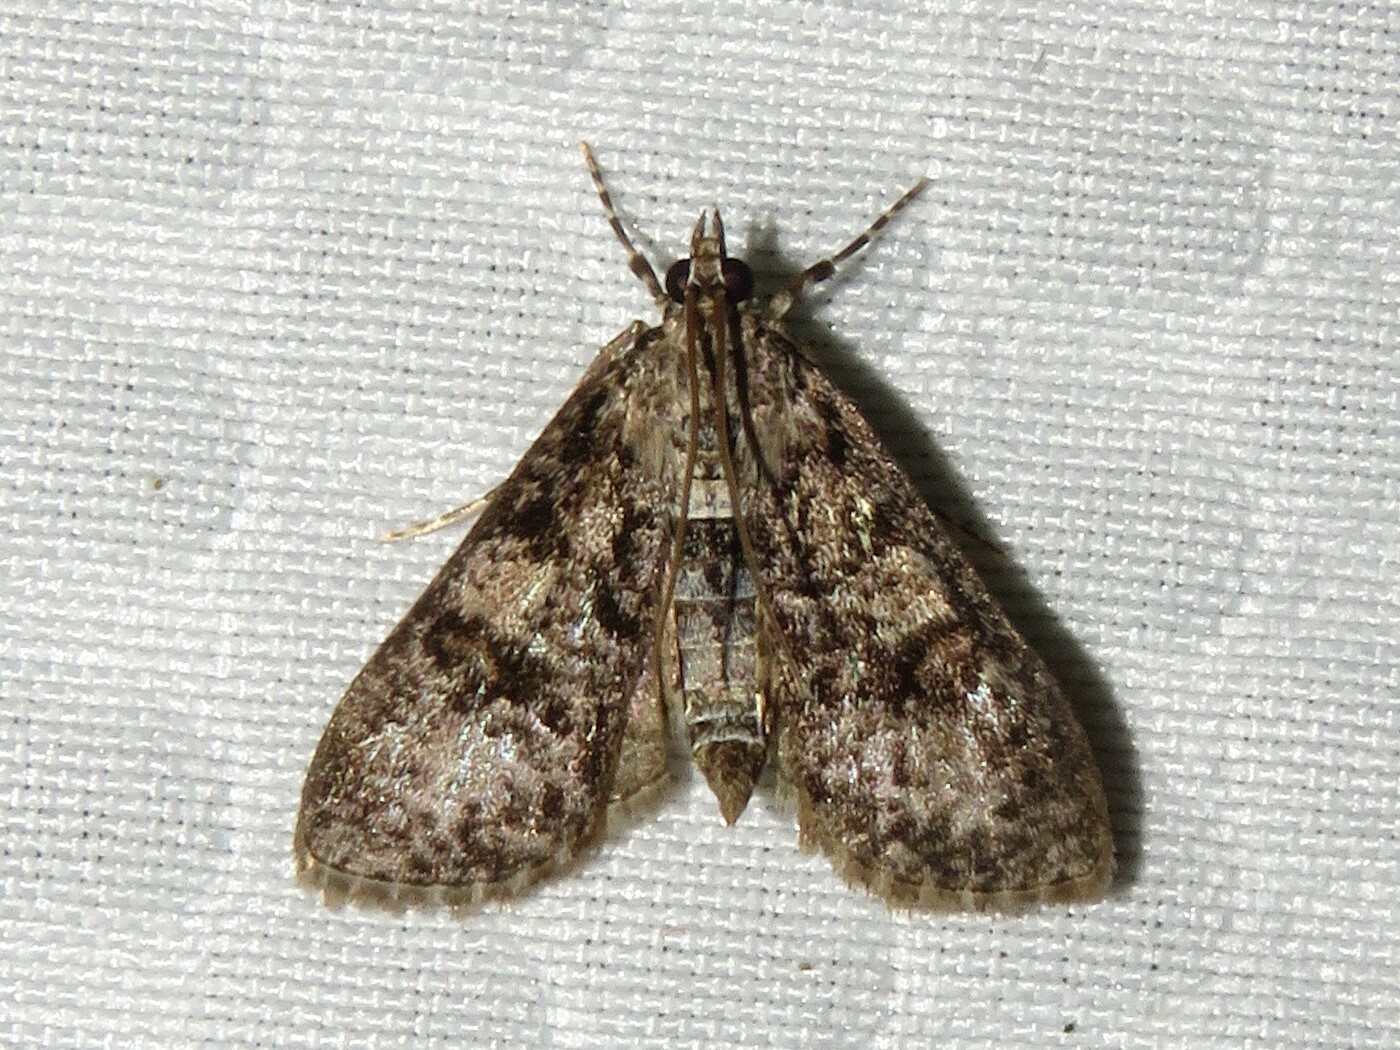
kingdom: Animalia
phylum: Arthropoda
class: Insecta
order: Lepidoptera
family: Crambidae
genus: Palpita
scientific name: Palpita magniferalis
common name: Splendid palpita moth
